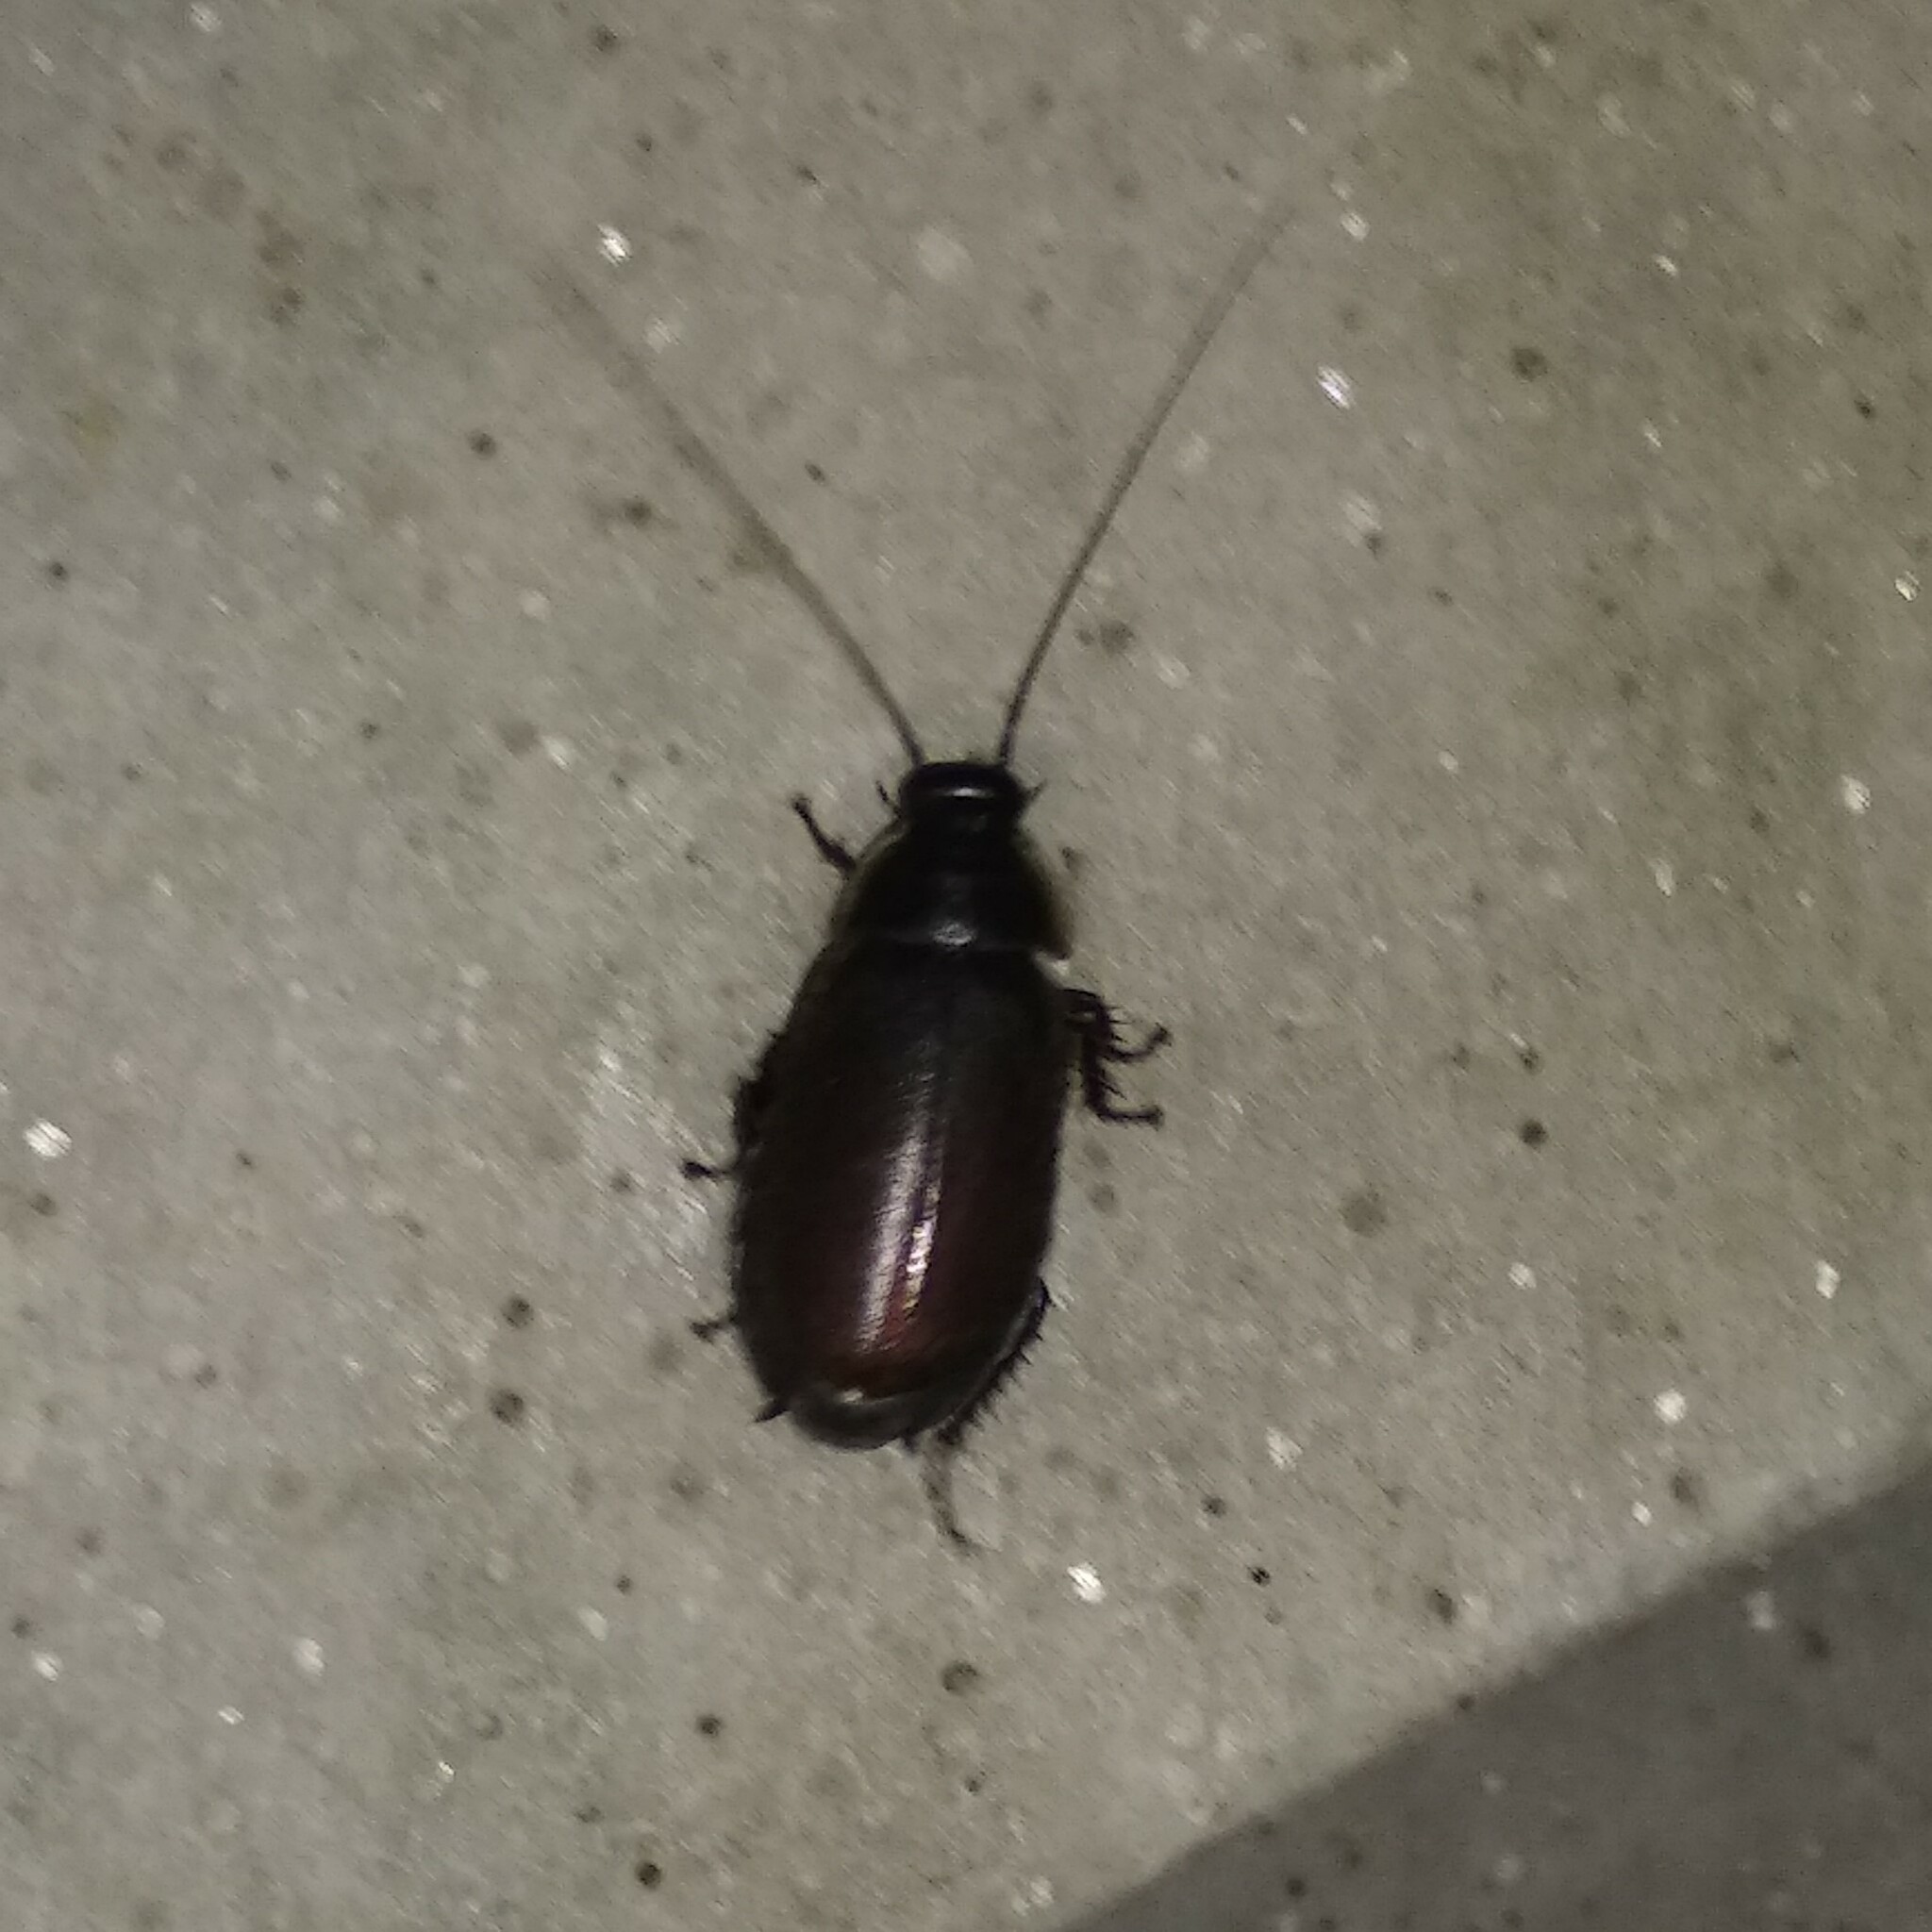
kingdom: Animalia
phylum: Arthropoda
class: Insecta
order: Blattodea
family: Blaberidae
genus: Diploptera
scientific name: Diploptera punctata
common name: Pacific beetle cockroach
